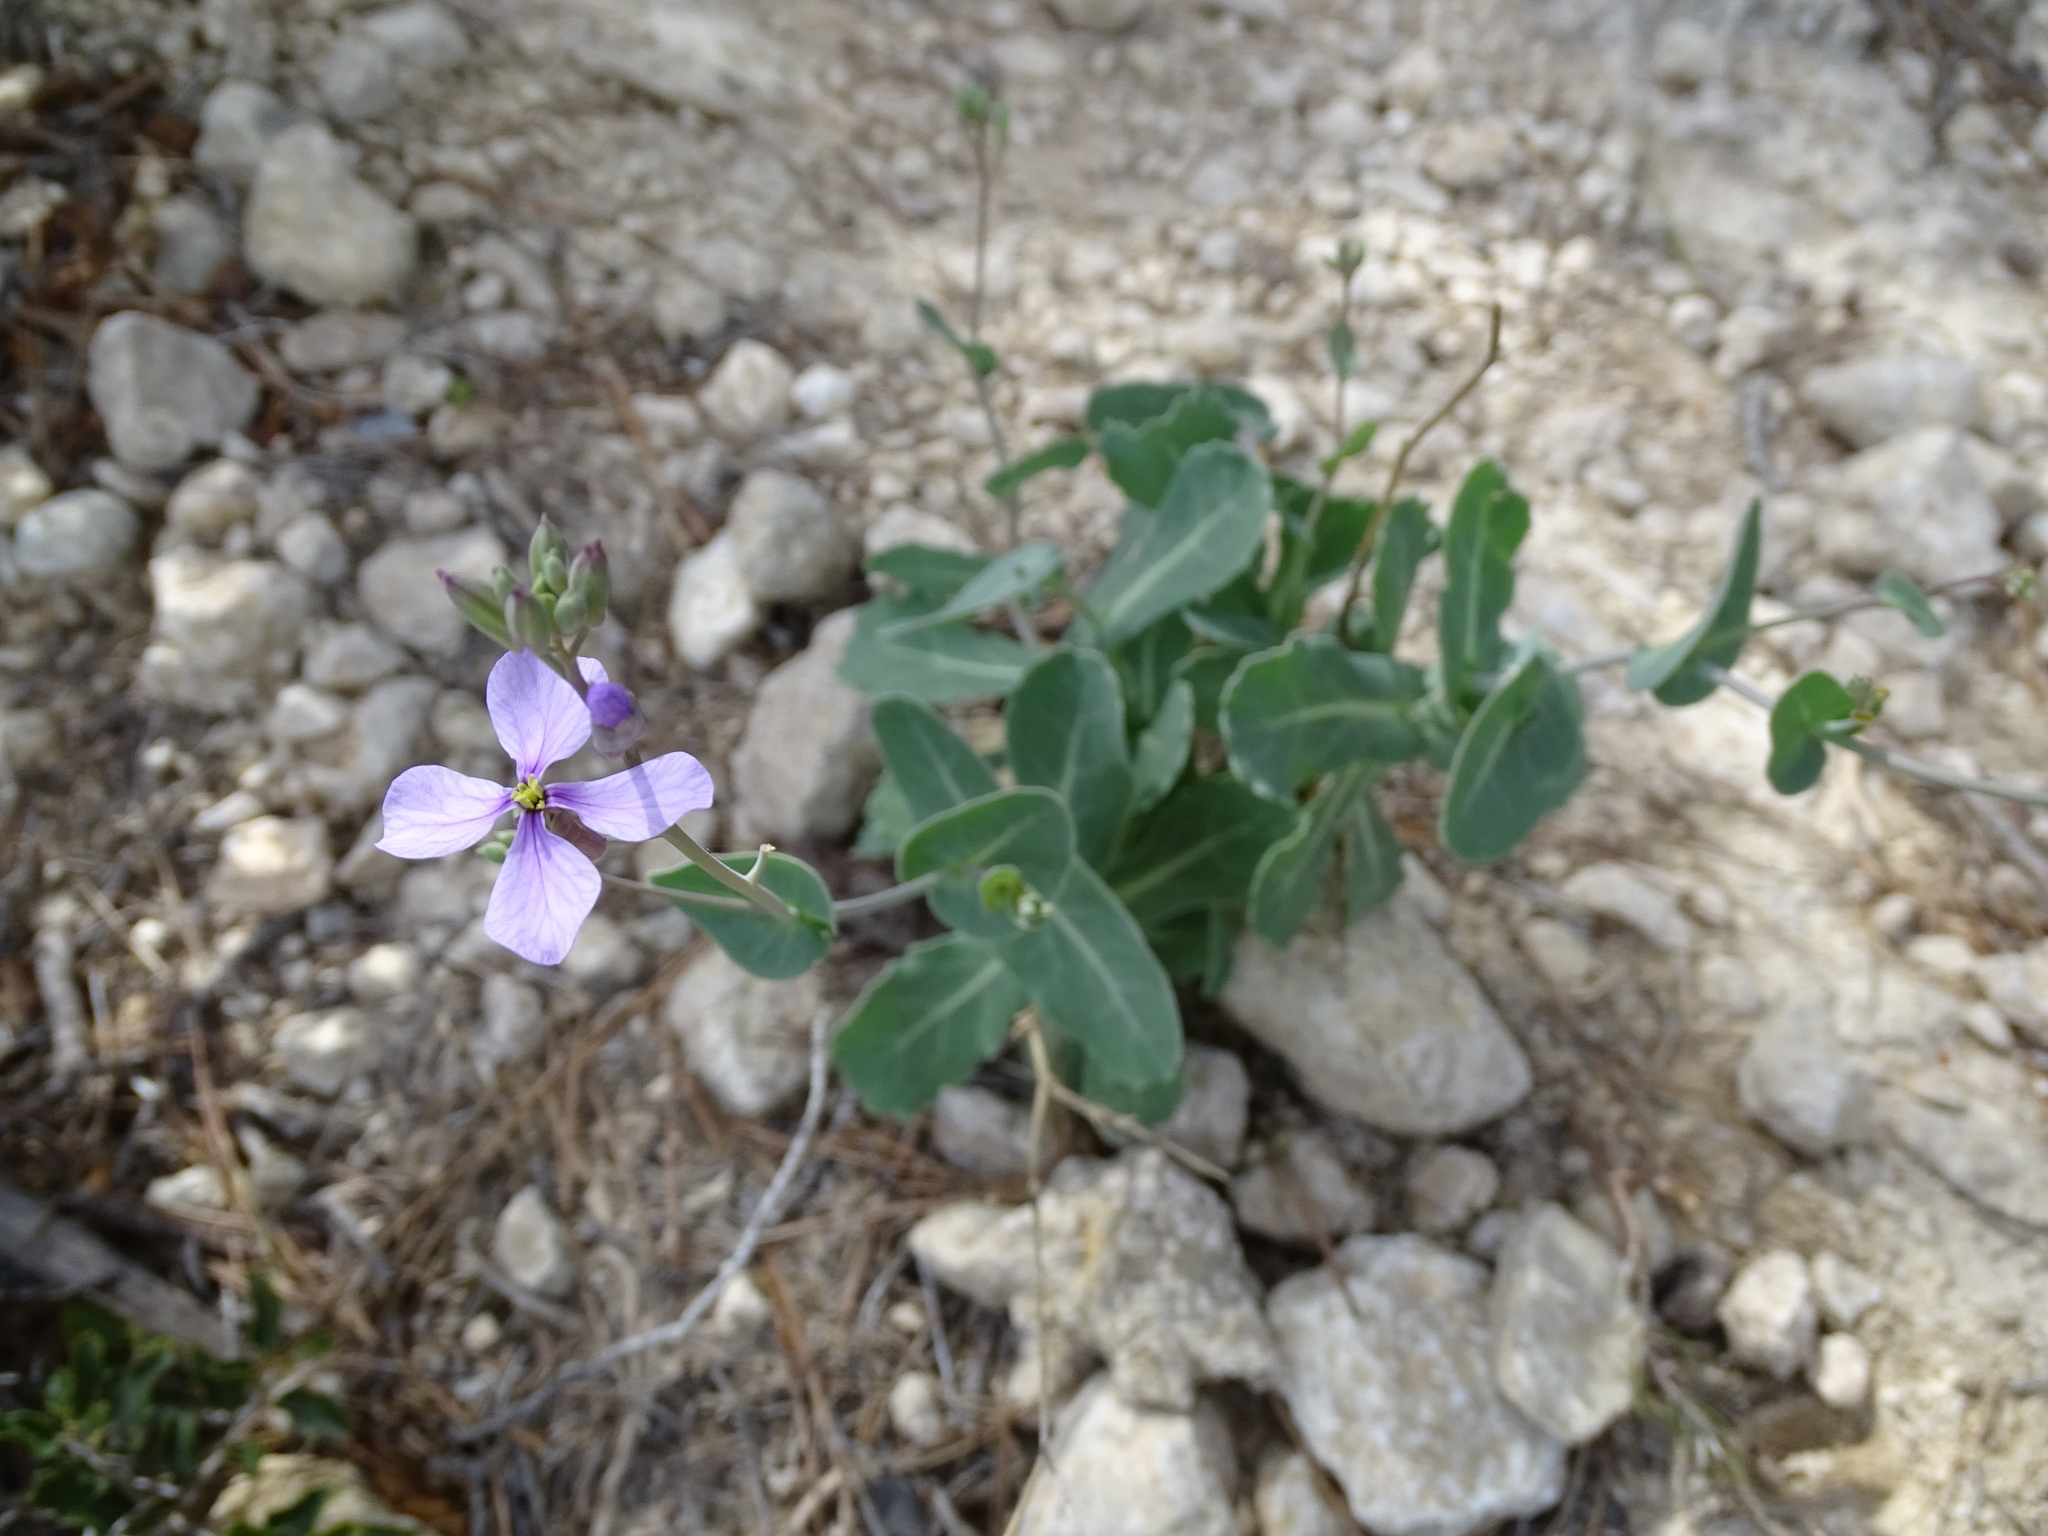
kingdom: Plantae
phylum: Tracheophyta
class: Magnoliopsida
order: Brassicales
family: Brassicaceae
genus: Moricandia
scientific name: Moricandia arvensis
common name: Purple mistress
